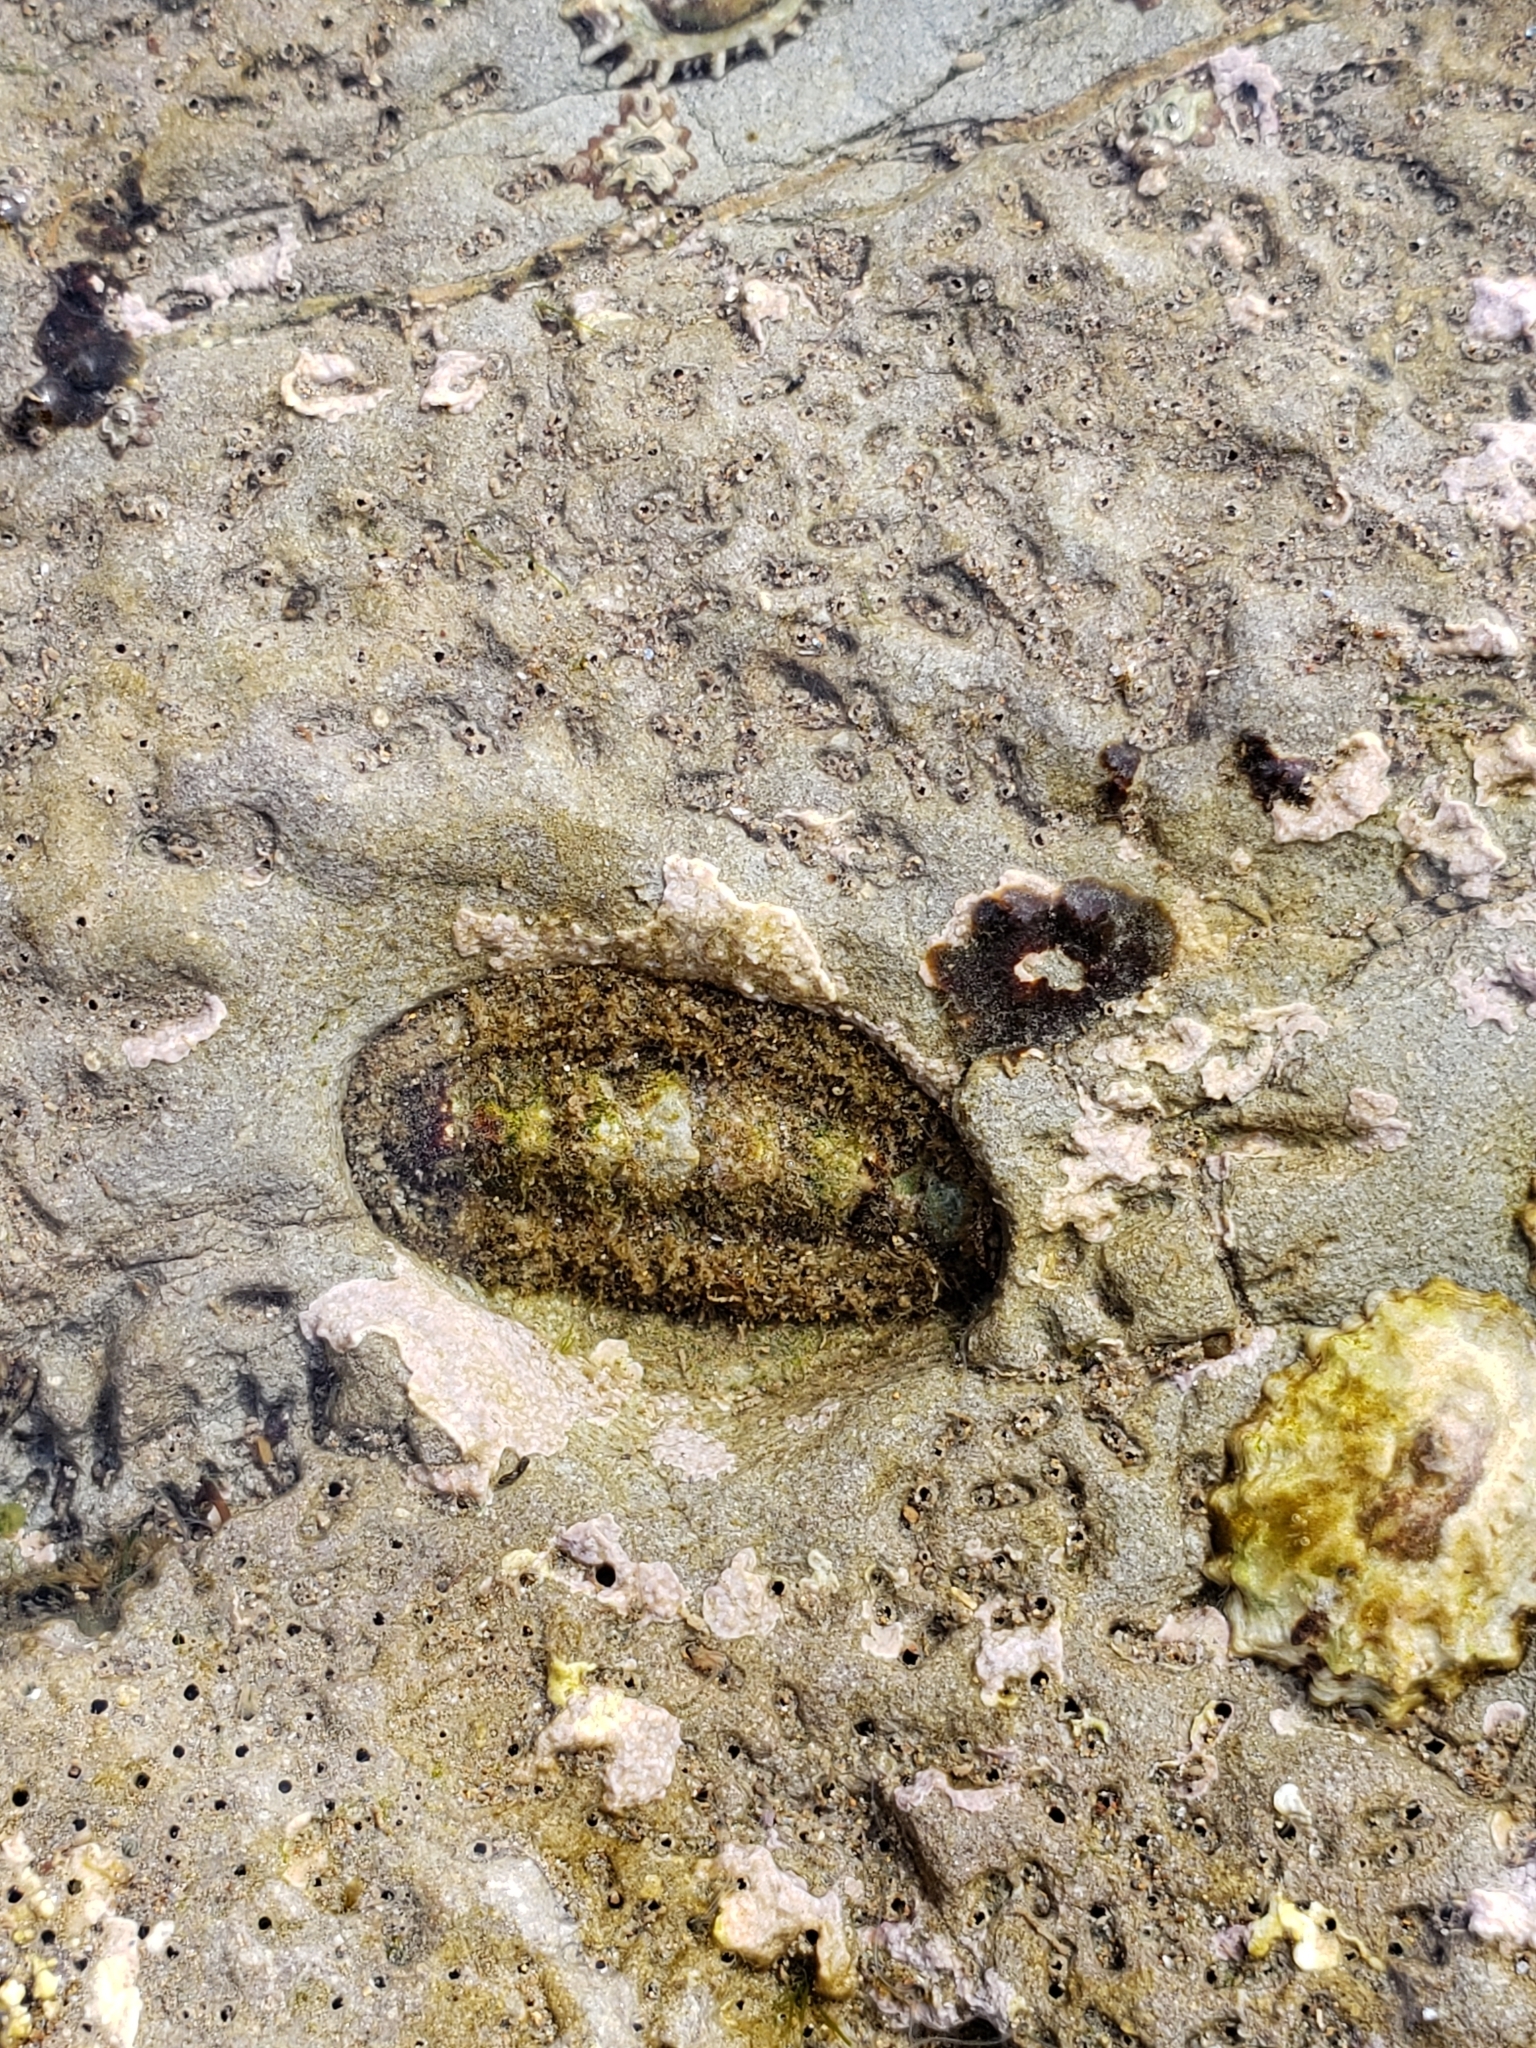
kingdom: Animalia
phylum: Mollusca
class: Polyplacophora
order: Chitonida
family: Tonicellidae
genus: Nuttallina
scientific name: Nuttallina californica
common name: California nuttall chiton
